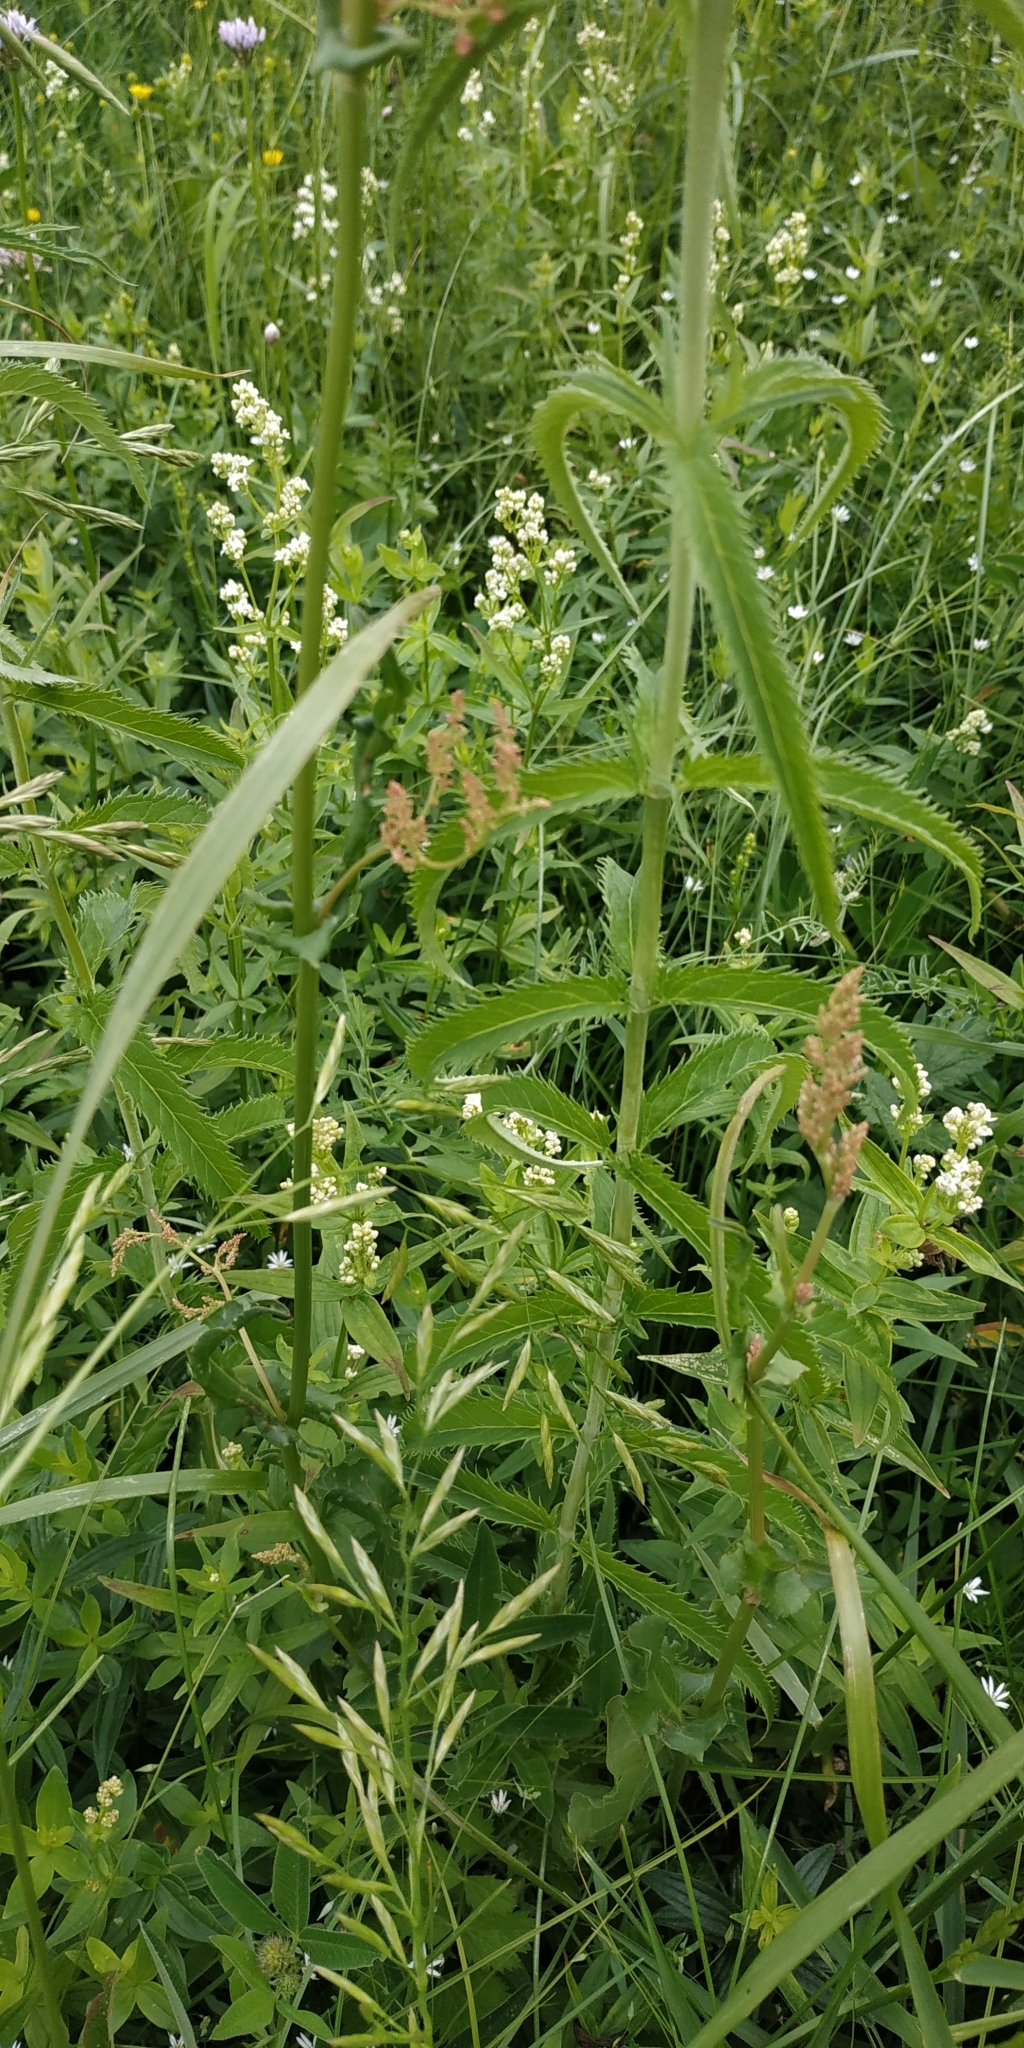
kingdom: Plantae
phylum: Tracheophyta
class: Magnoliopsida
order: Lamiales
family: Plantaginaceae
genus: Veronica
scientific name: Veronica longifolia
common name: Garden speedwell
